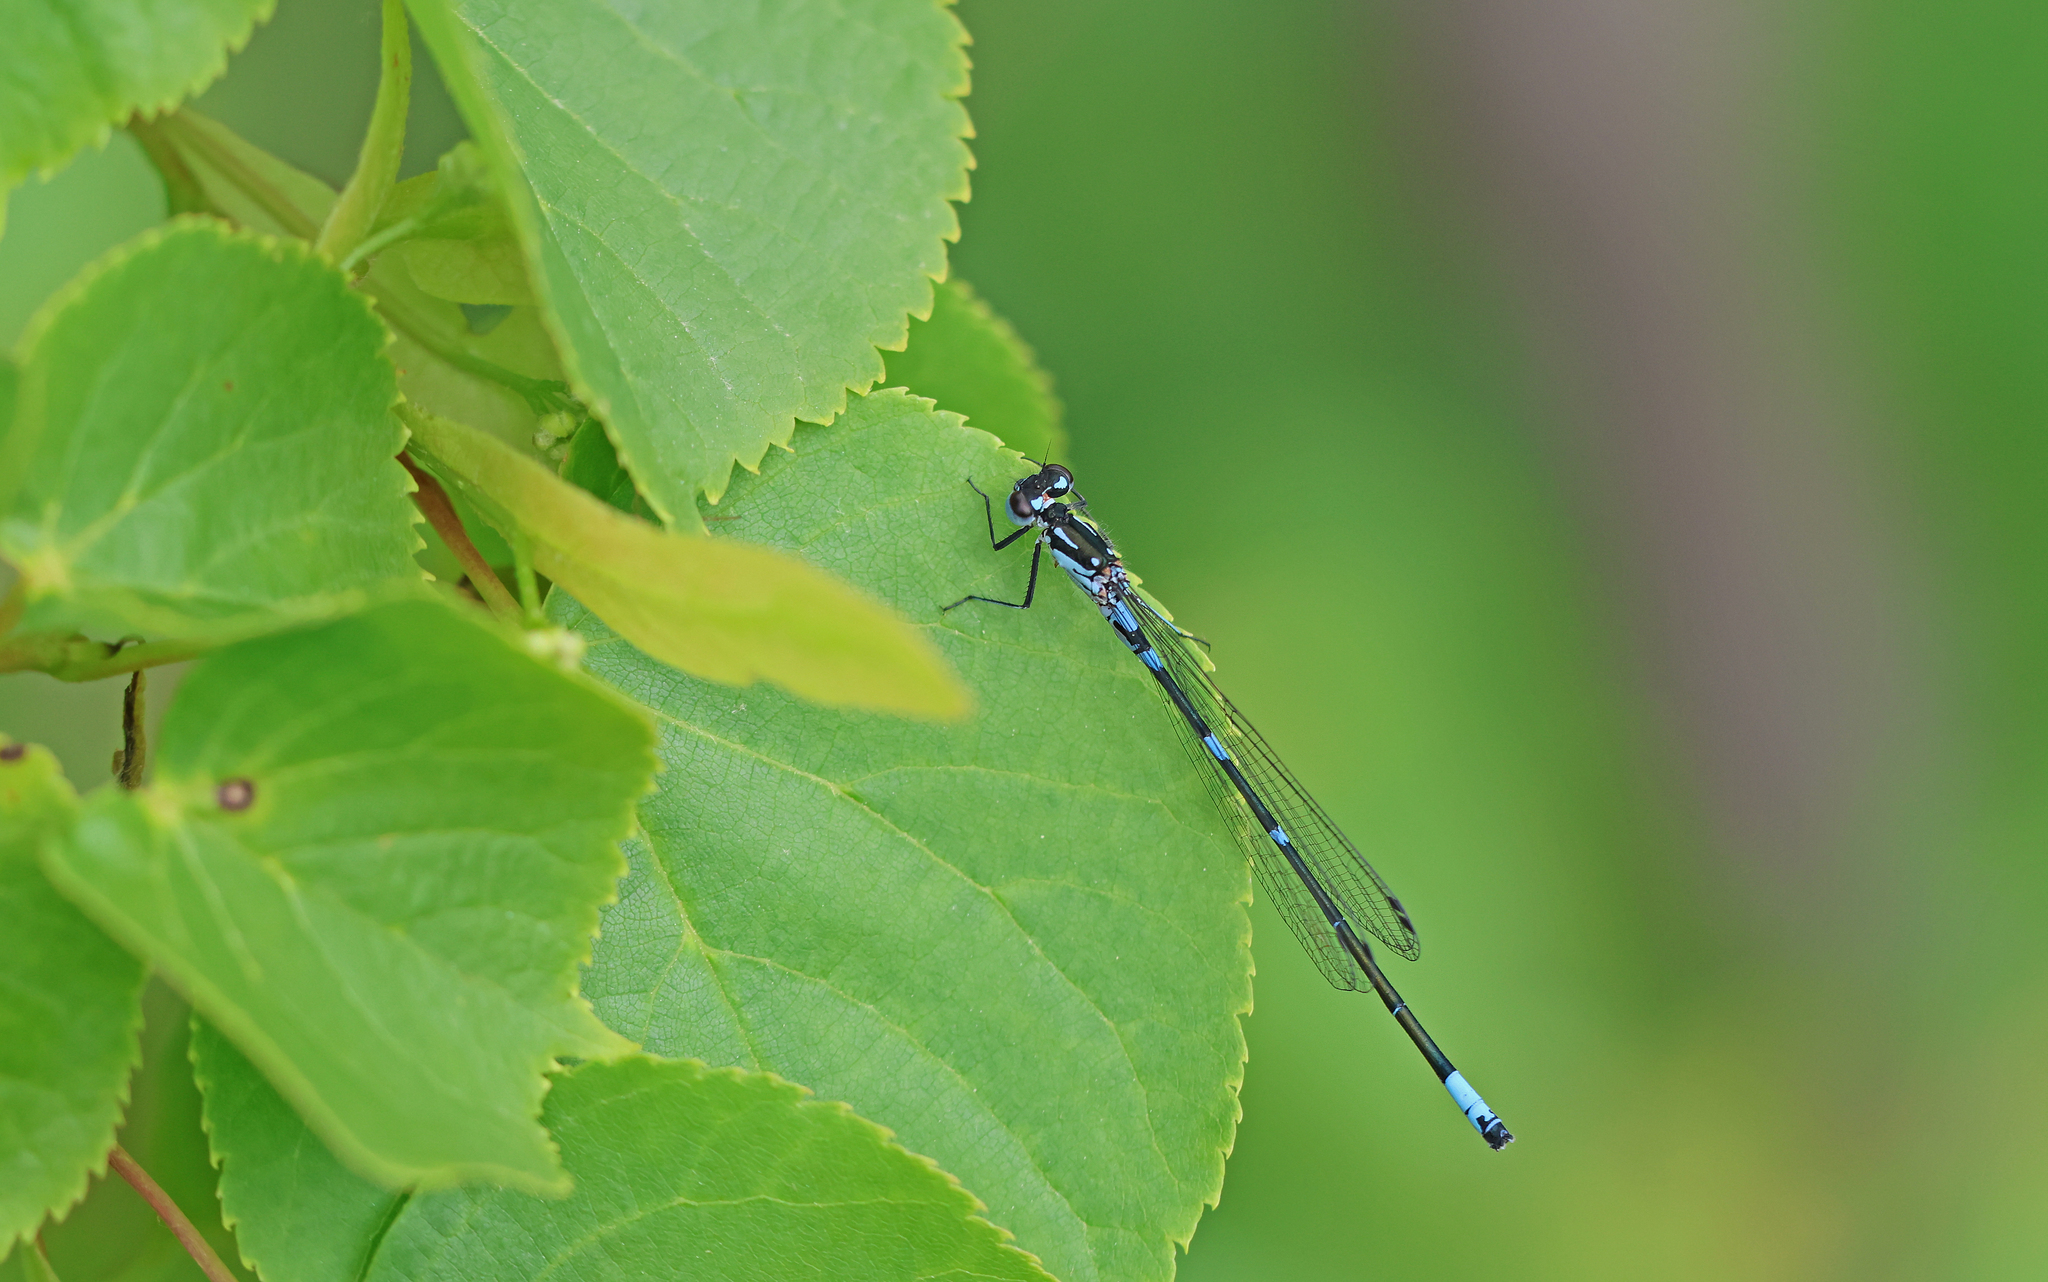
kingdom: Animalia
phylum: Arthropoda
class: Insecta
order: Odonata
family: Coenagrionidae
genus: Coenagrion
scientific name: Coenagrion pulchellum
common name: Variable bluet
